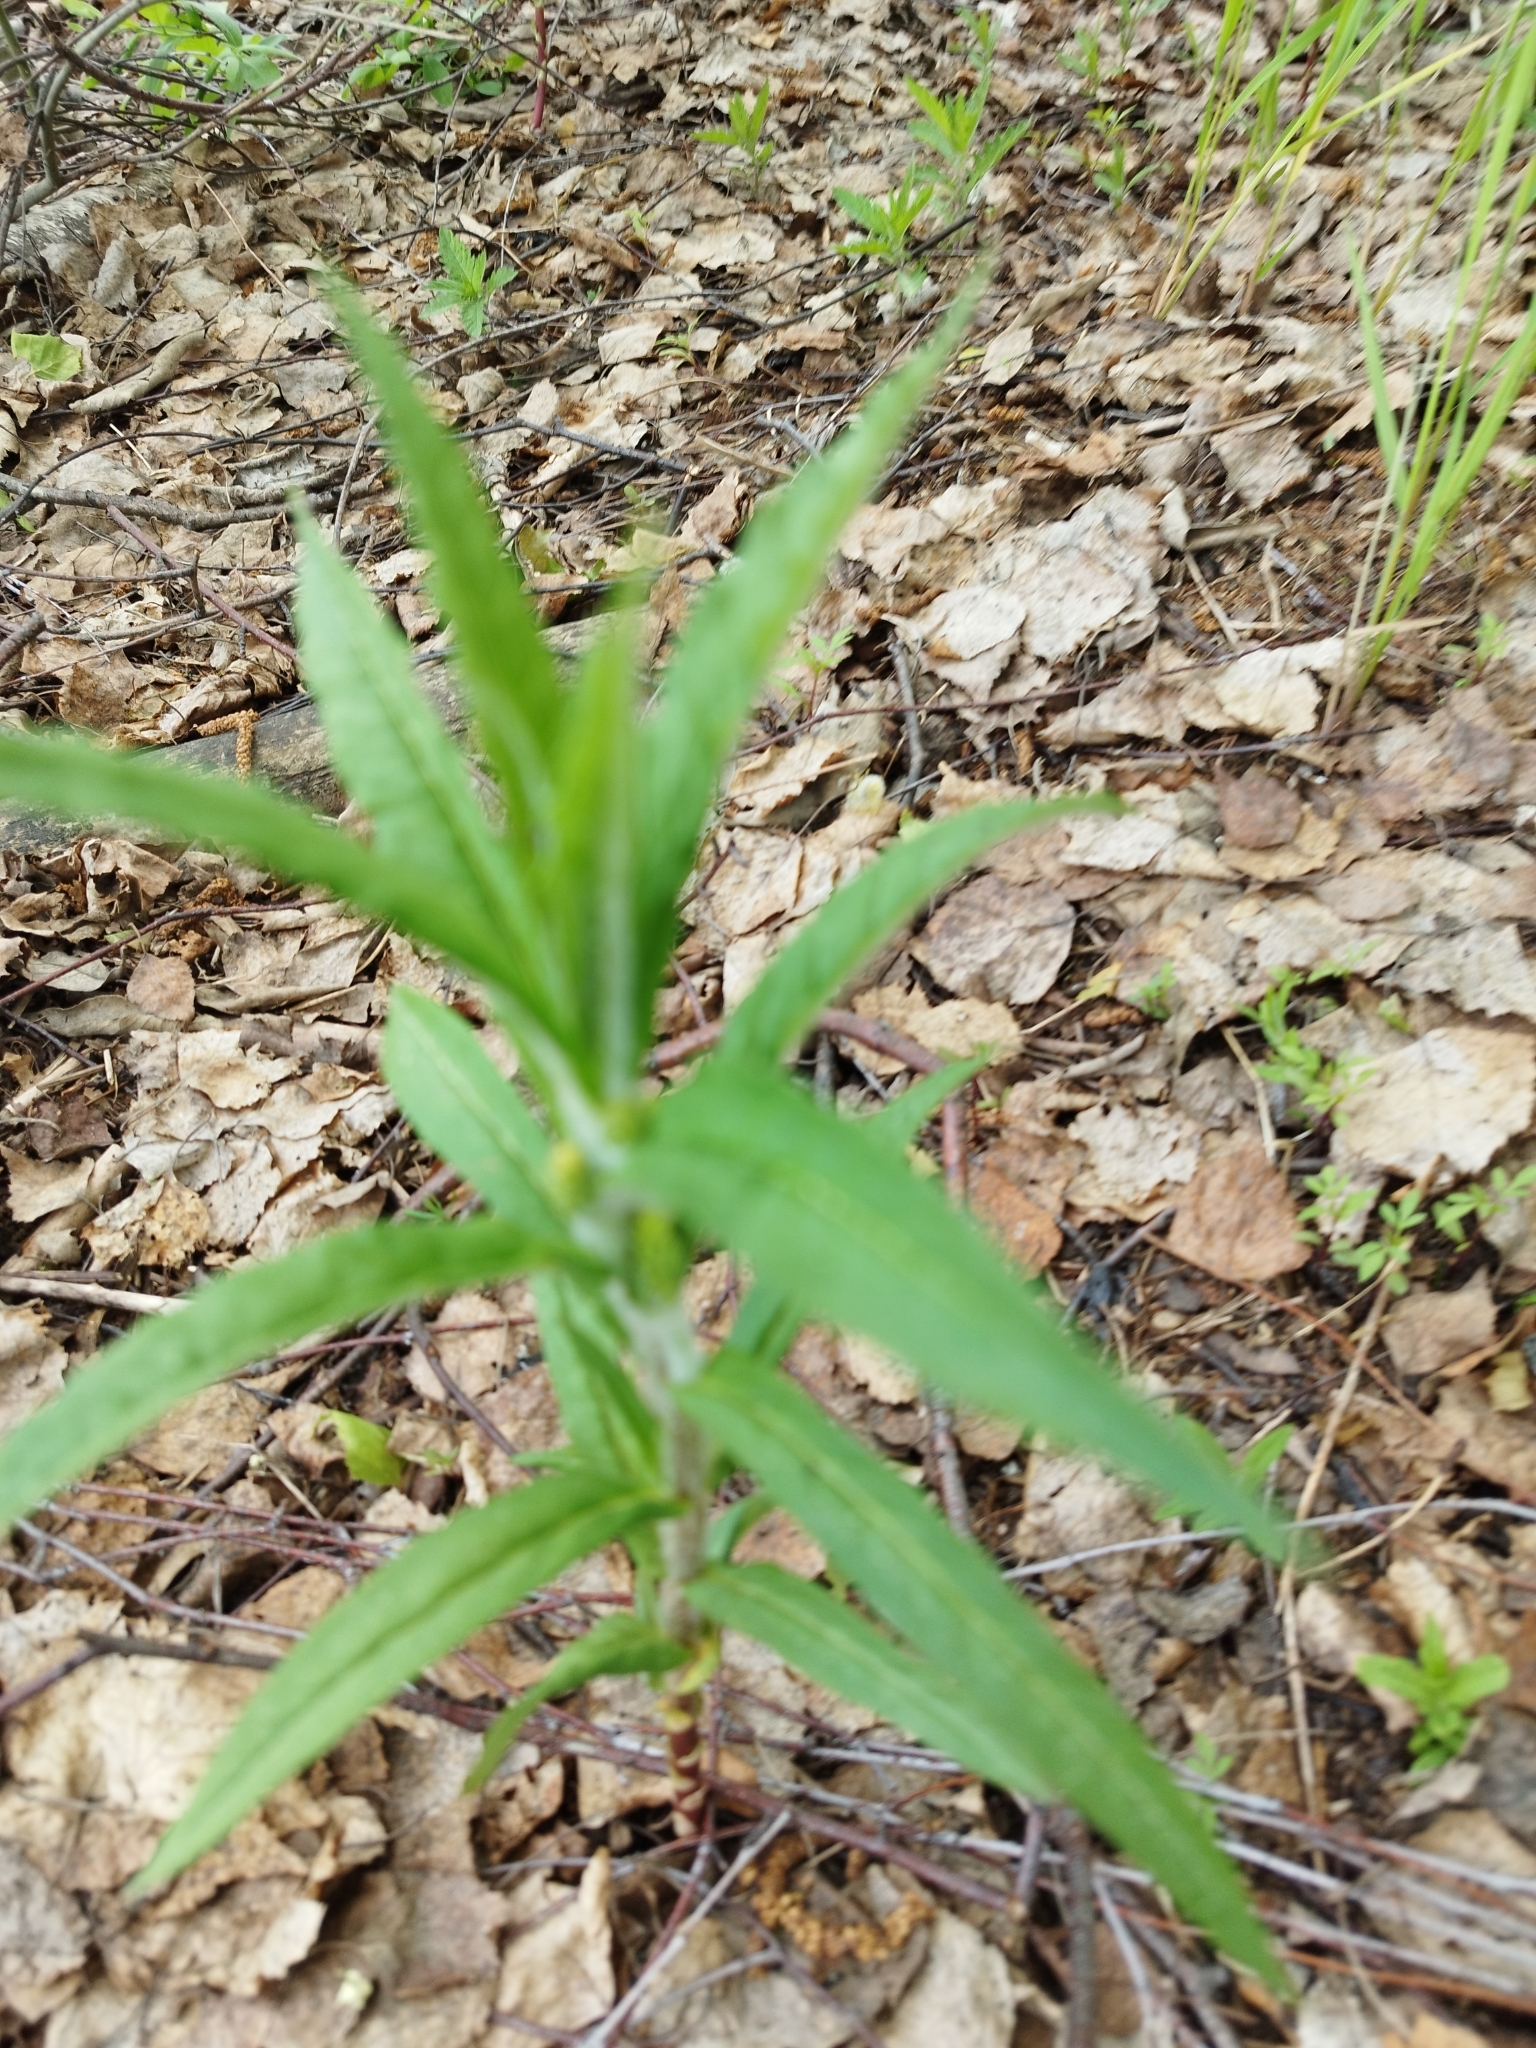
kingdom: Plantae
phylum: Tracheophyta
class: Magnoliopsida
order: Ericales
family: Primulaceae
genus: Lysimachia
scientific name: Lysimachia thyrsiflora
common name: Tufted loosestrife
